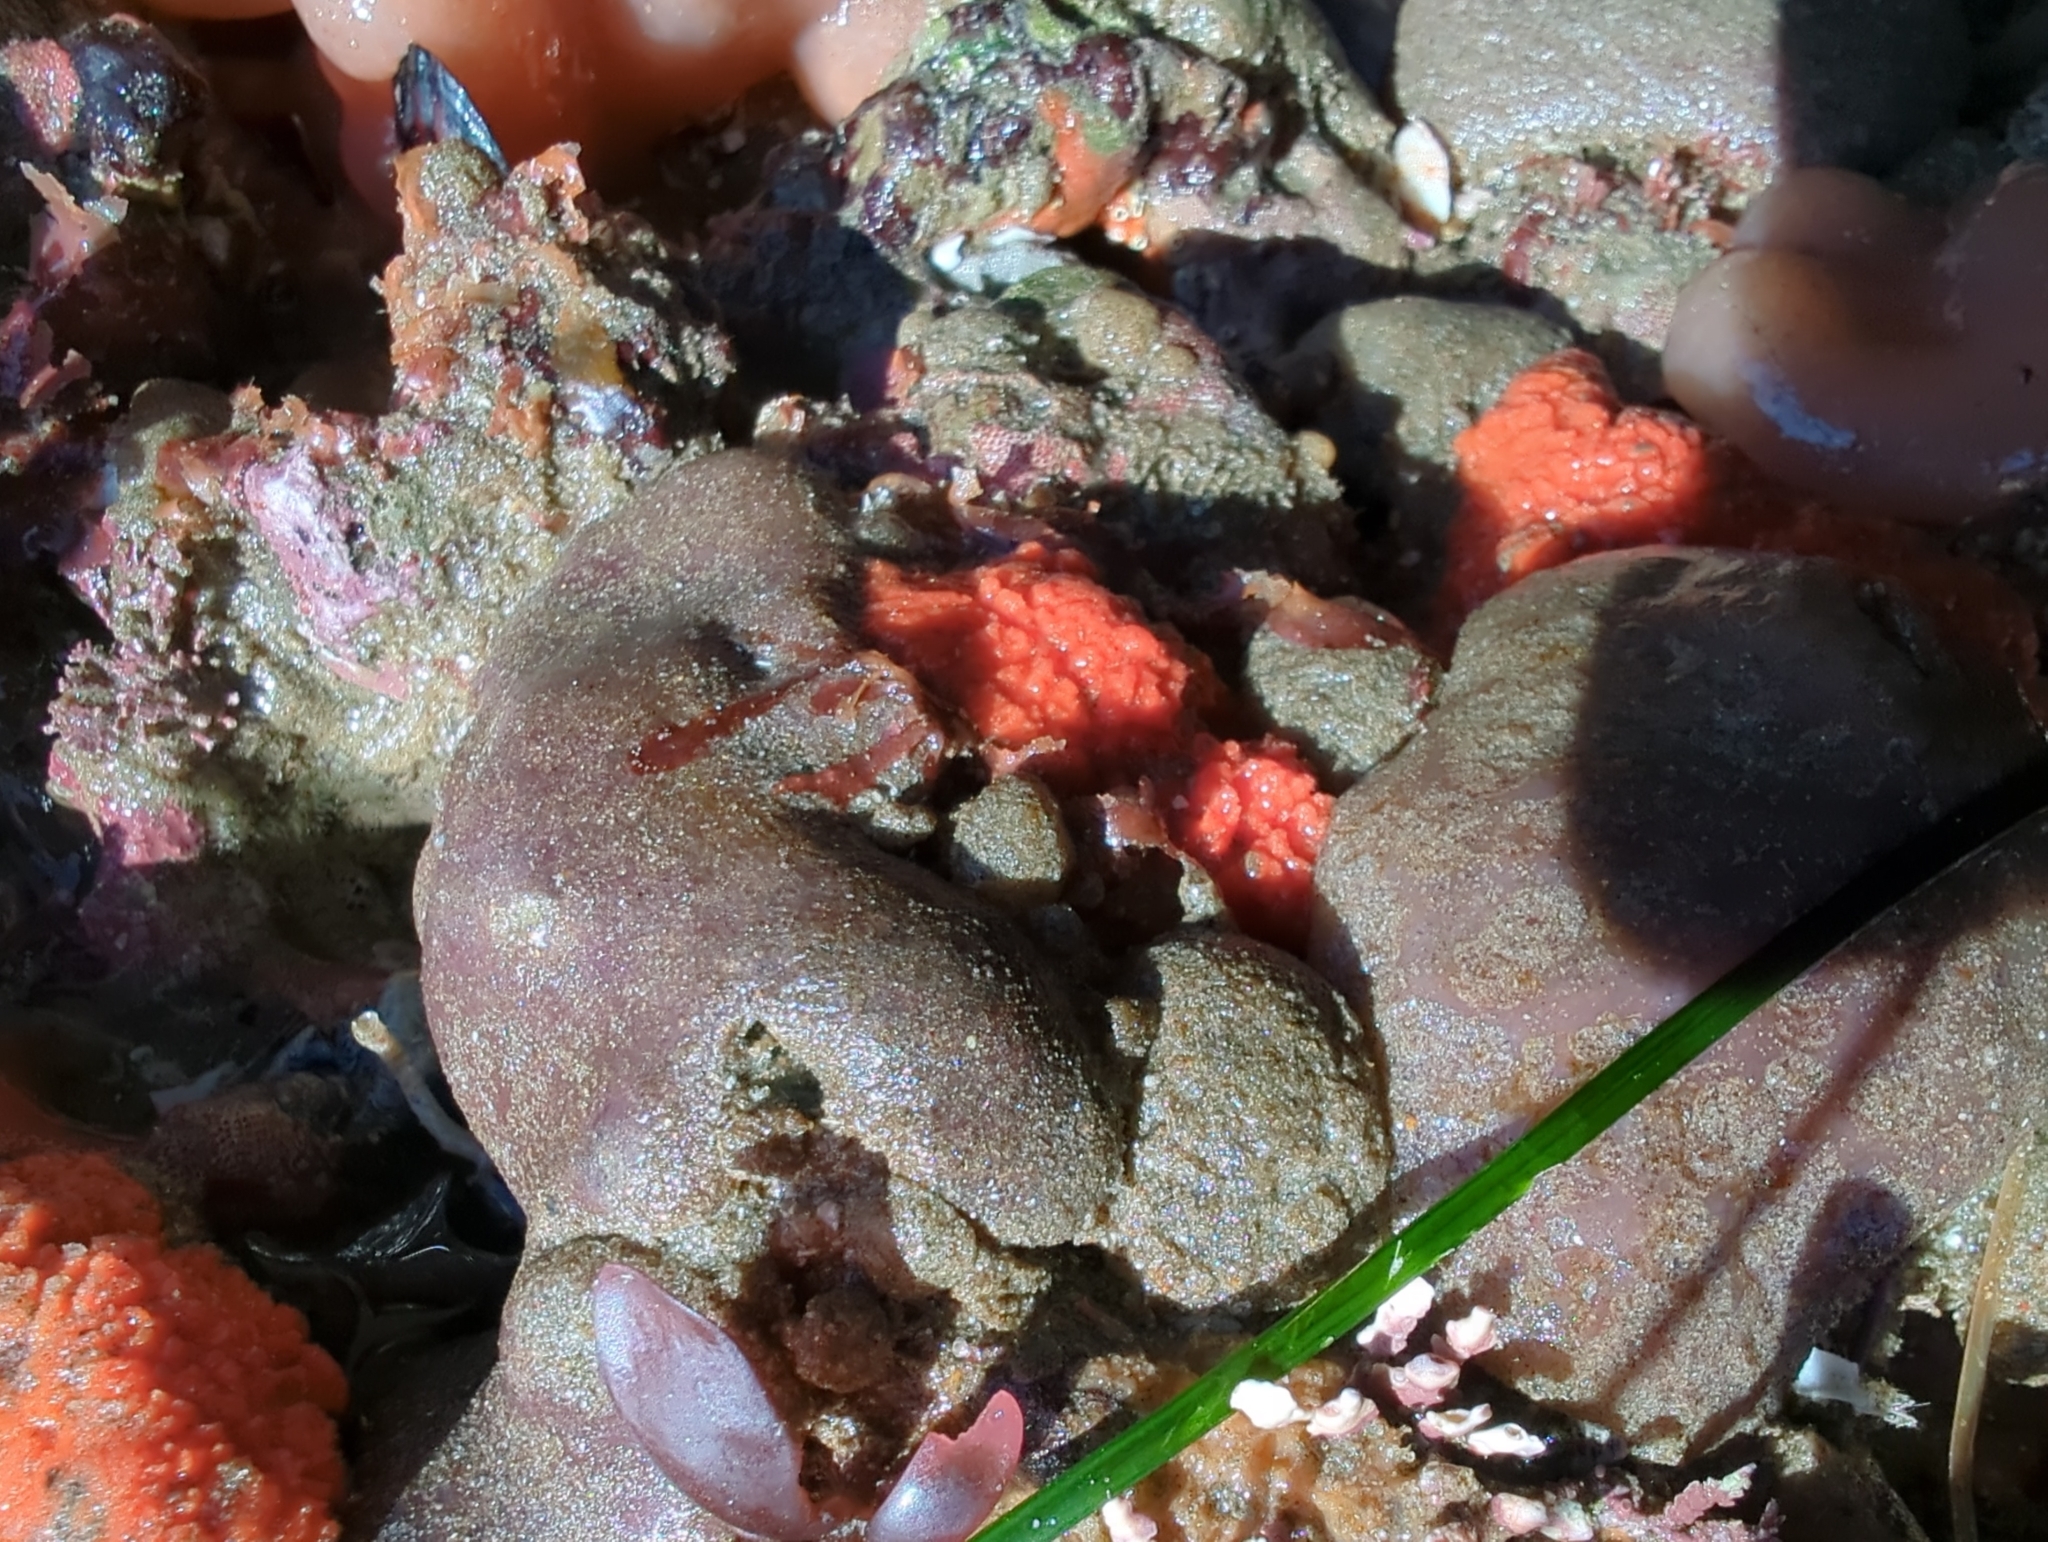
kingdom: Animalia
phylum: Porifera
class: Demospongiae
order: Axinellida
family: Raspailiidae
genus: Endectyon
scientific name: Endectyon hispitumulus
